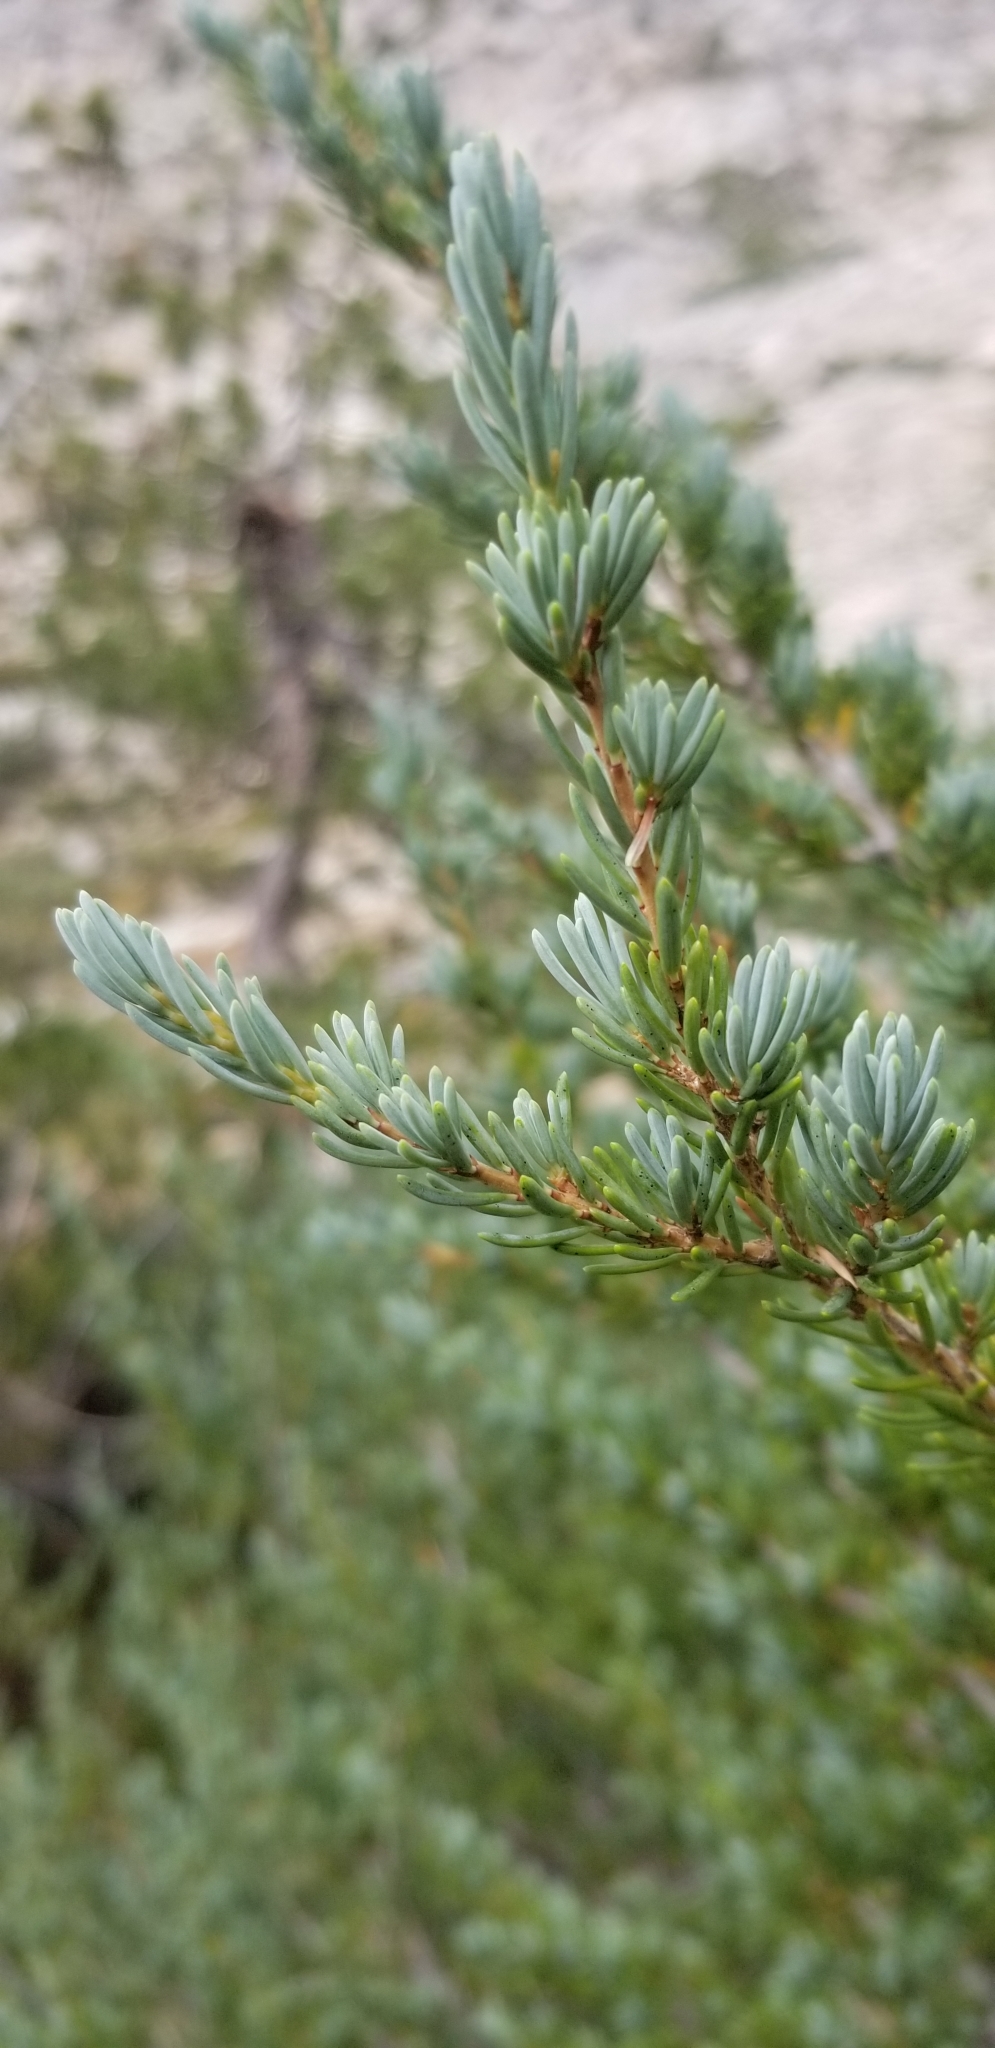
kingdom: Plantae
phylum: Tracheophyta
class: Pinopsida
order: Pinales
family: Pinaceae
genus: Tsuga
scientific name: Tsuga mertensiana
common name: Mountain hemlock
